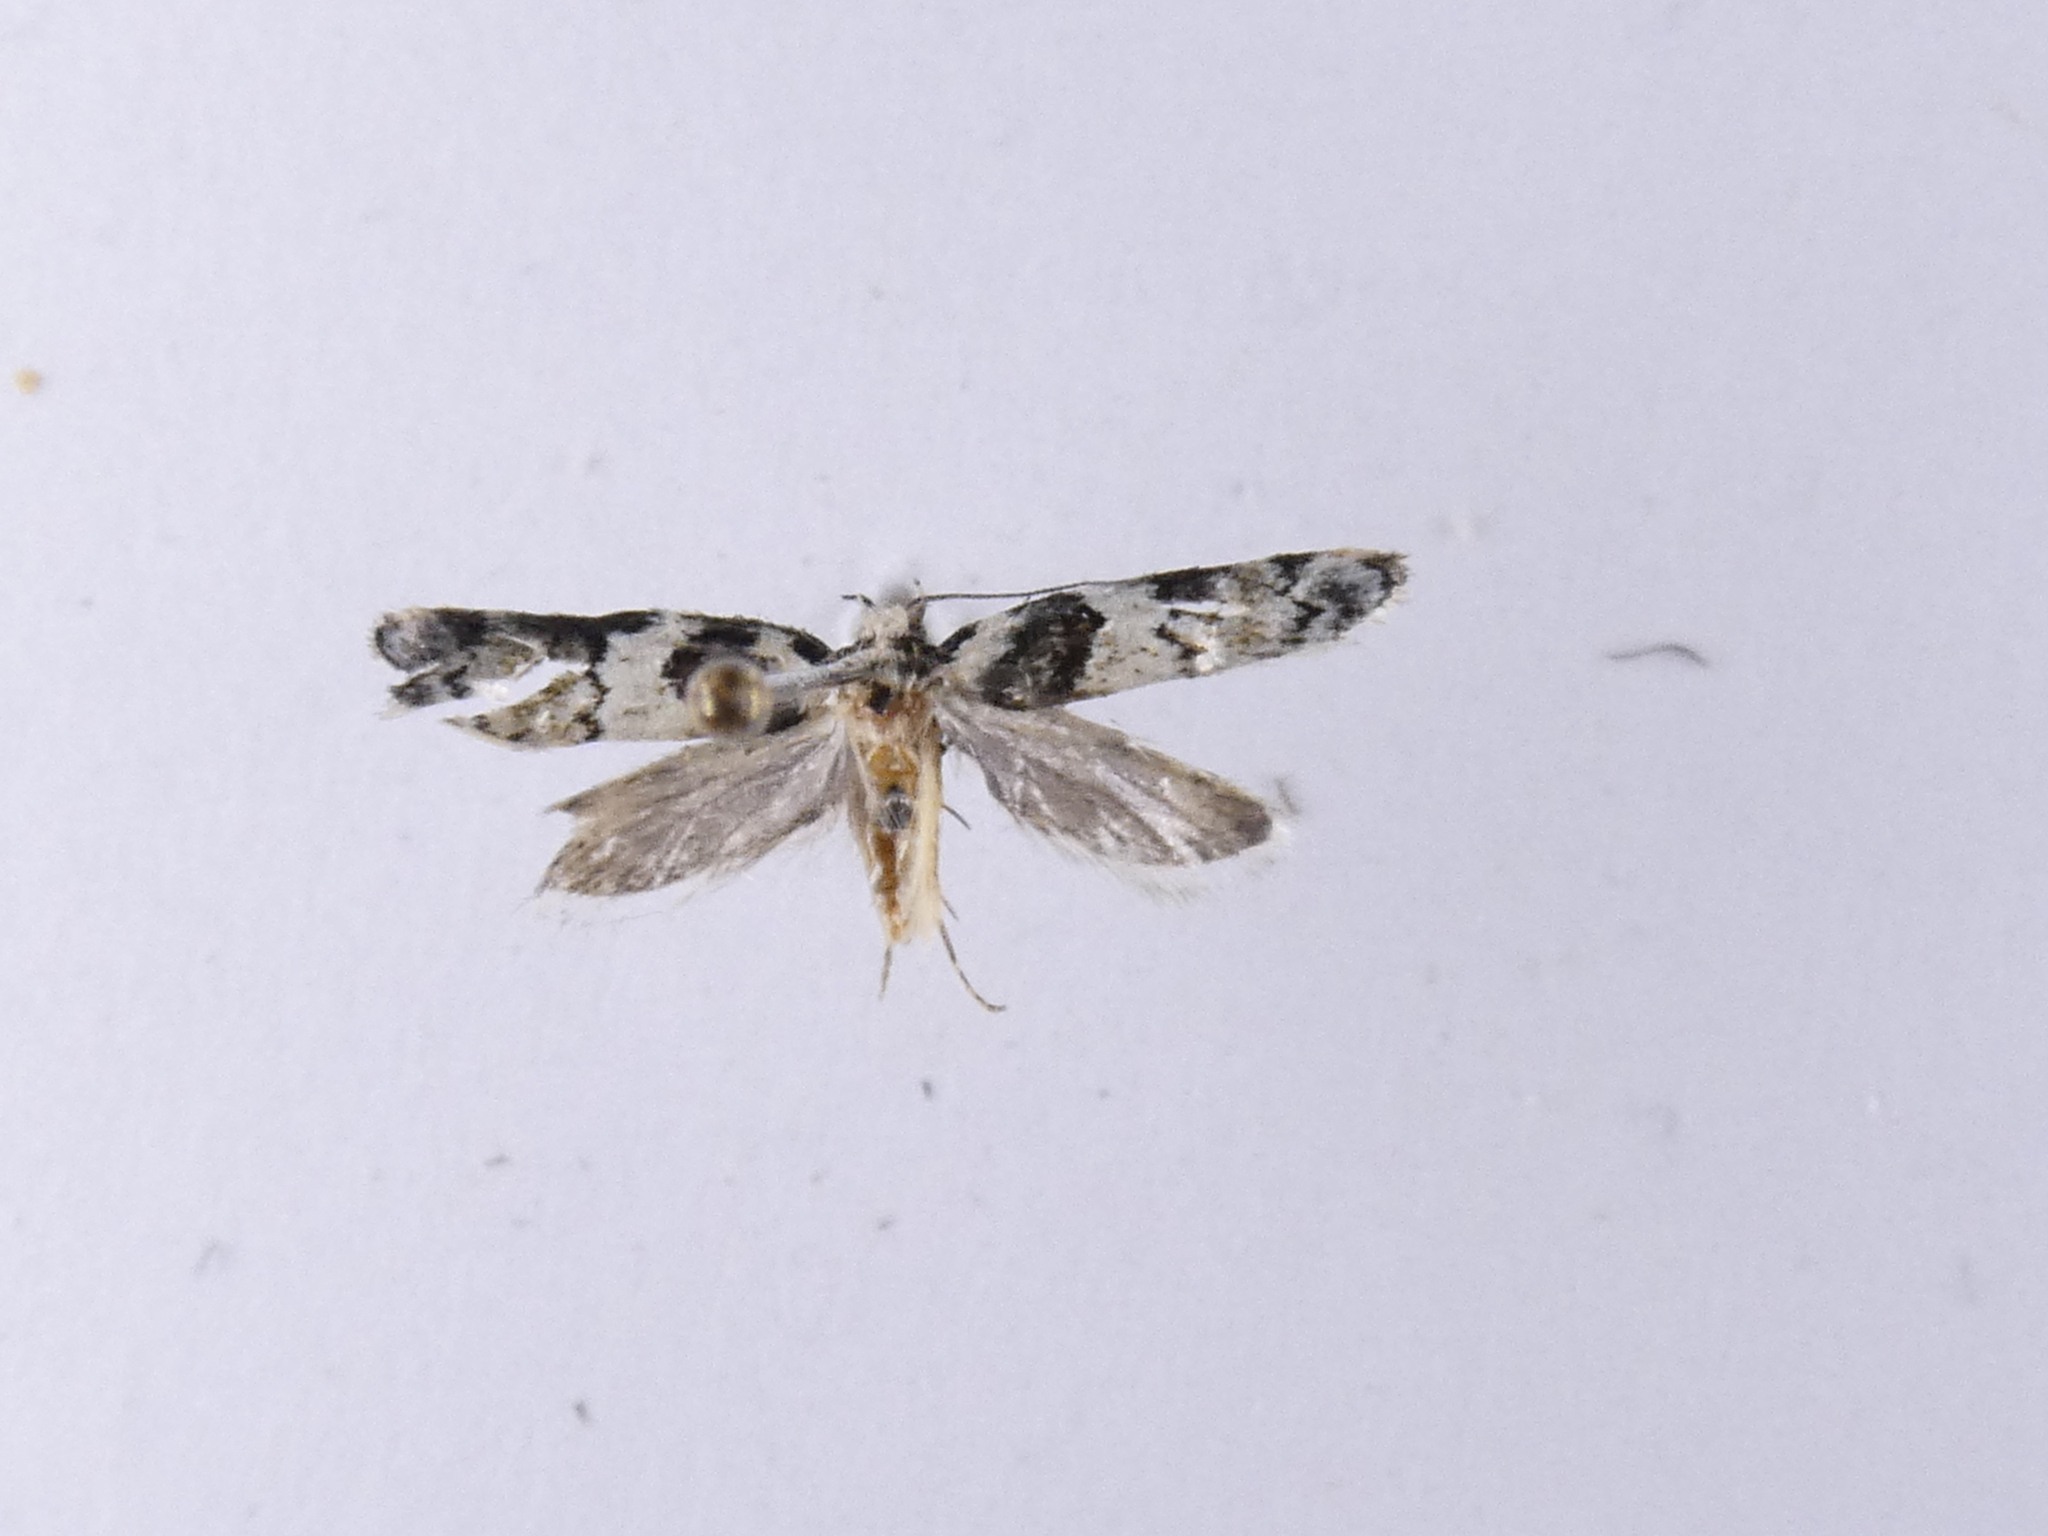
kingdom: Animalia
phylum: Arthropoda
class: Insecta
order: Lepidoptera
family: Oecophoridae
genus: Trachypepla
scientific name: Trachypepla galaxias
